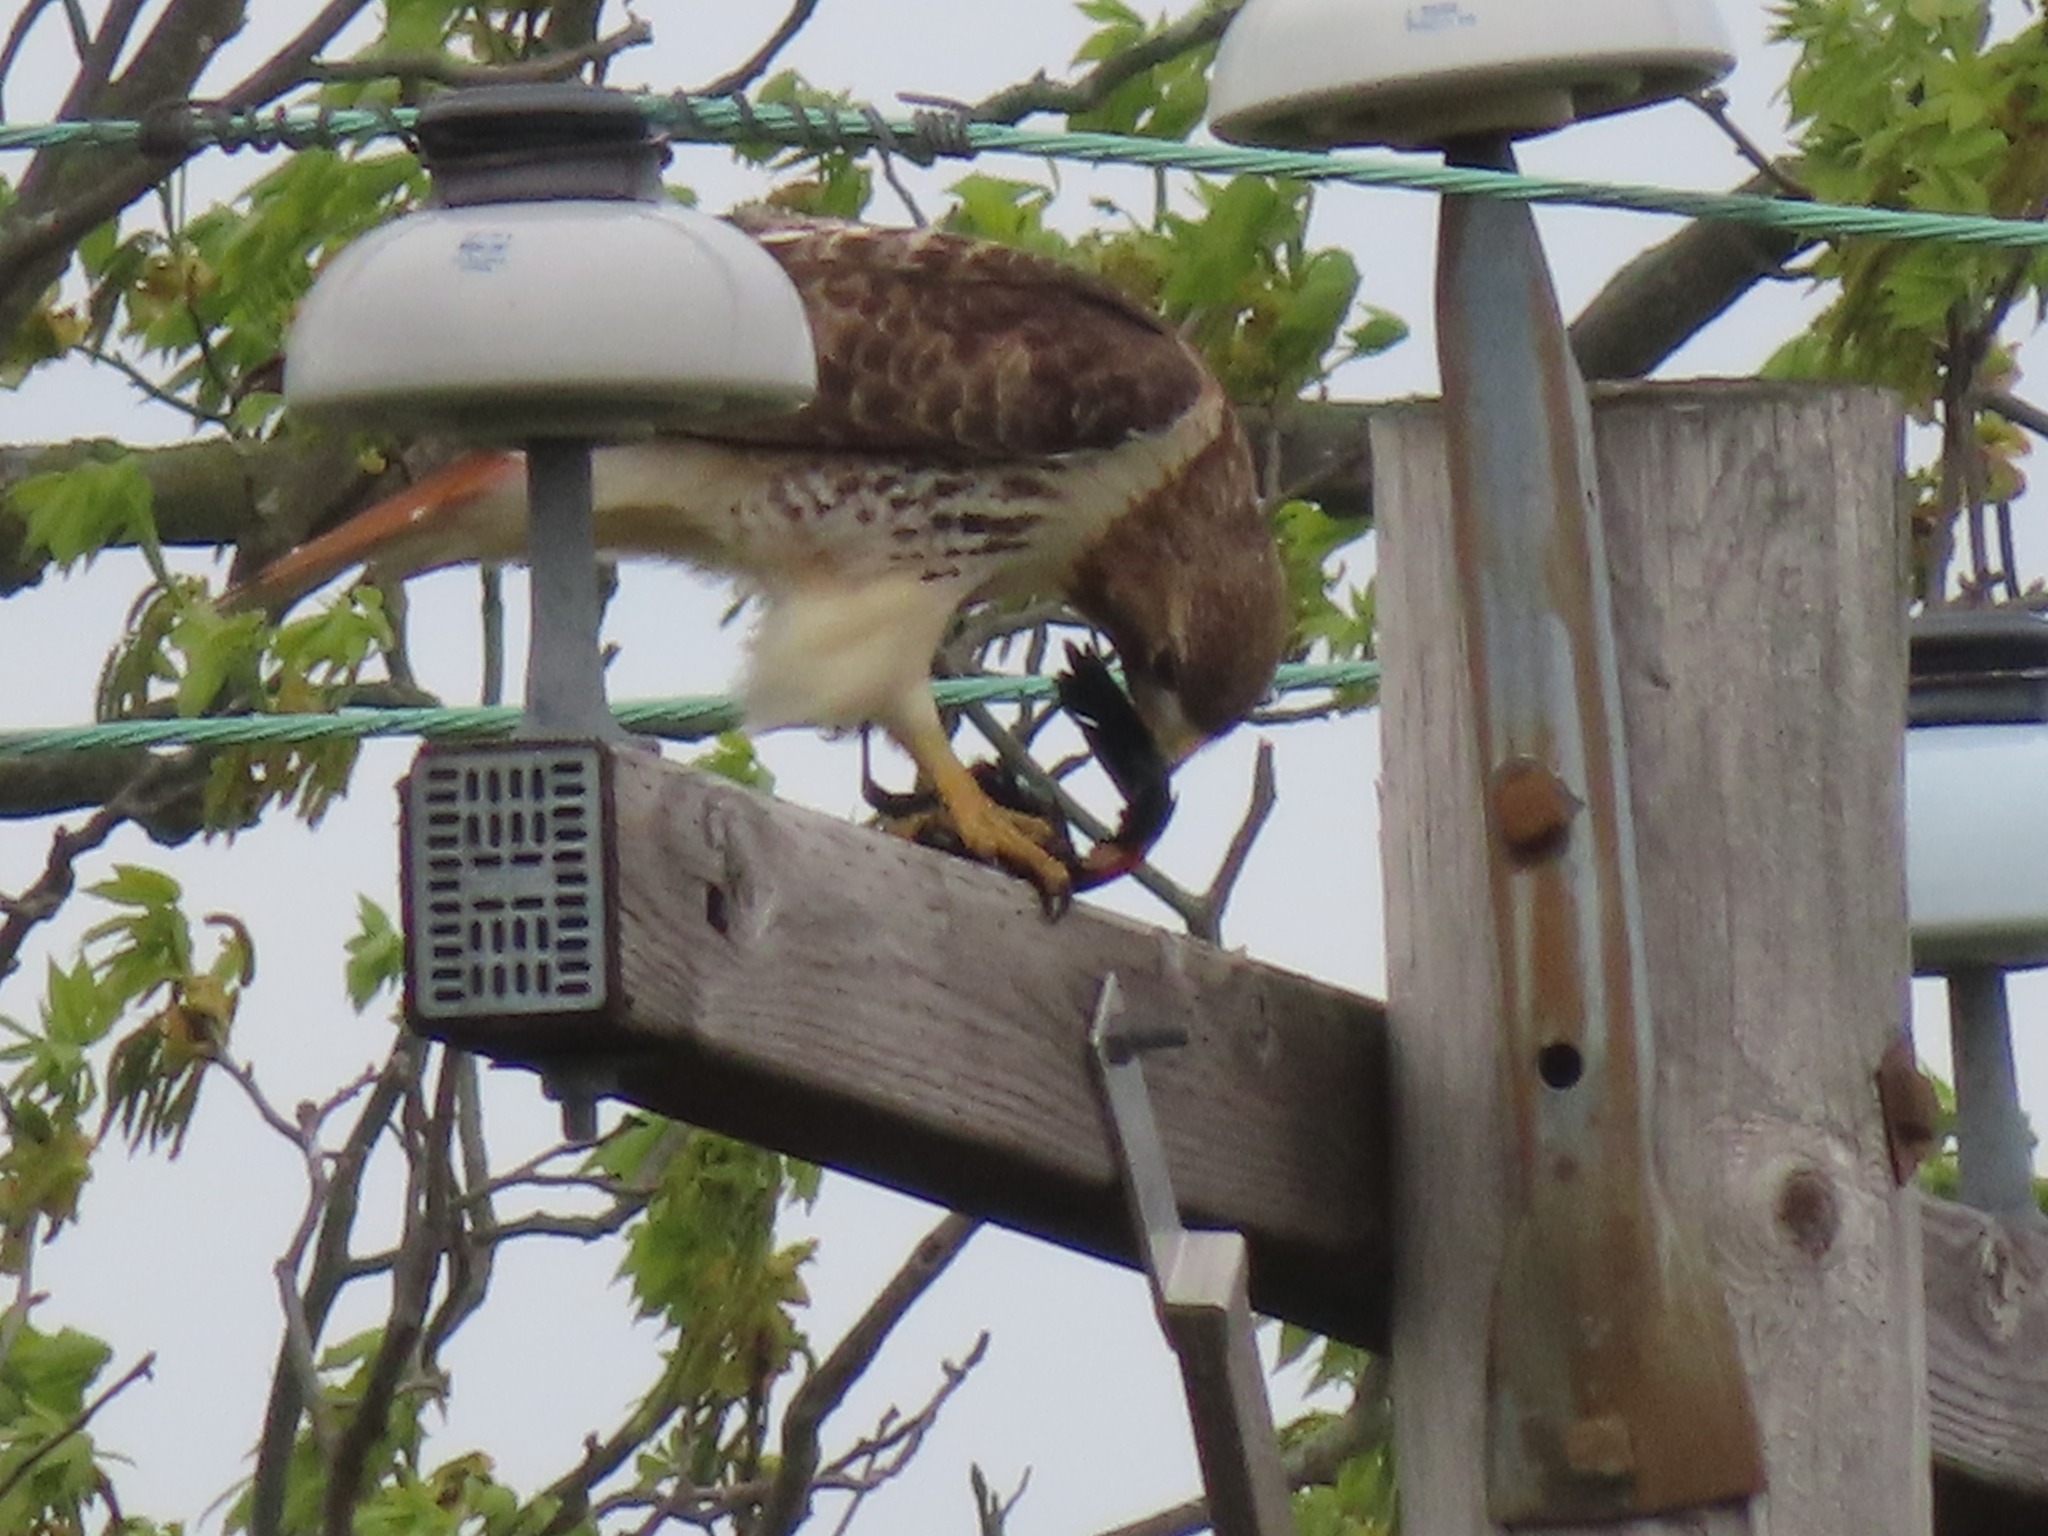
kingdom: Animalia
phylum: Chordata
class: Aves
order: Passeriformes
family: Icteridae
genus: Agelaius
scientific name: Agelaius phoeniceus
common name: Red-winged blackbird
